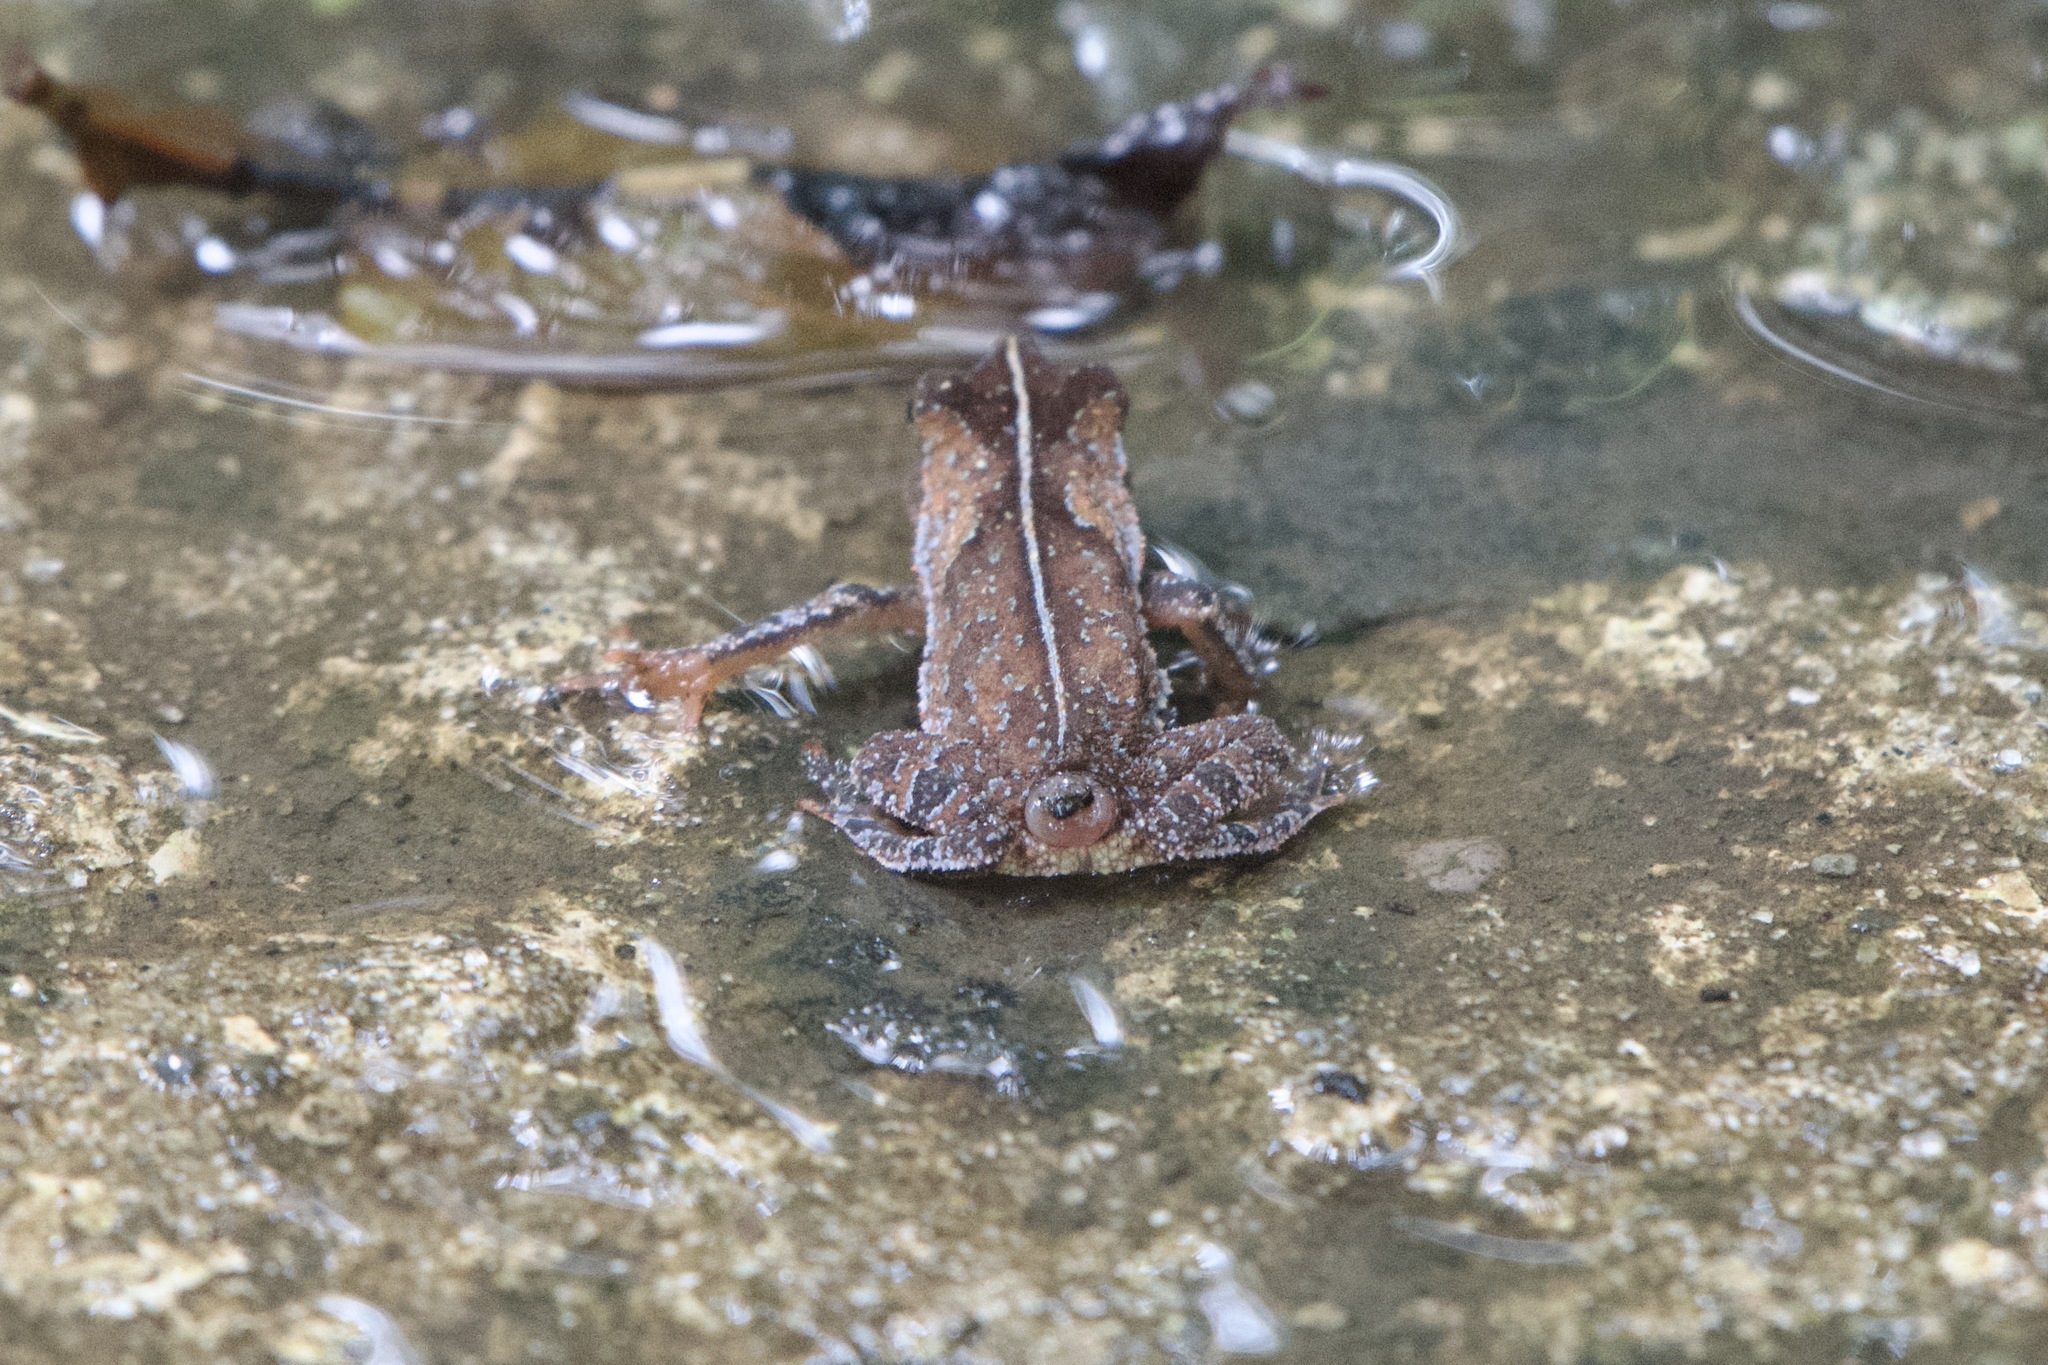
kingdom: Animalia
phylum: Chordata
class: Amphibia
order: Anura
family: Bufonidae
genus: Rhinella
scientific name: Rhinella alata
